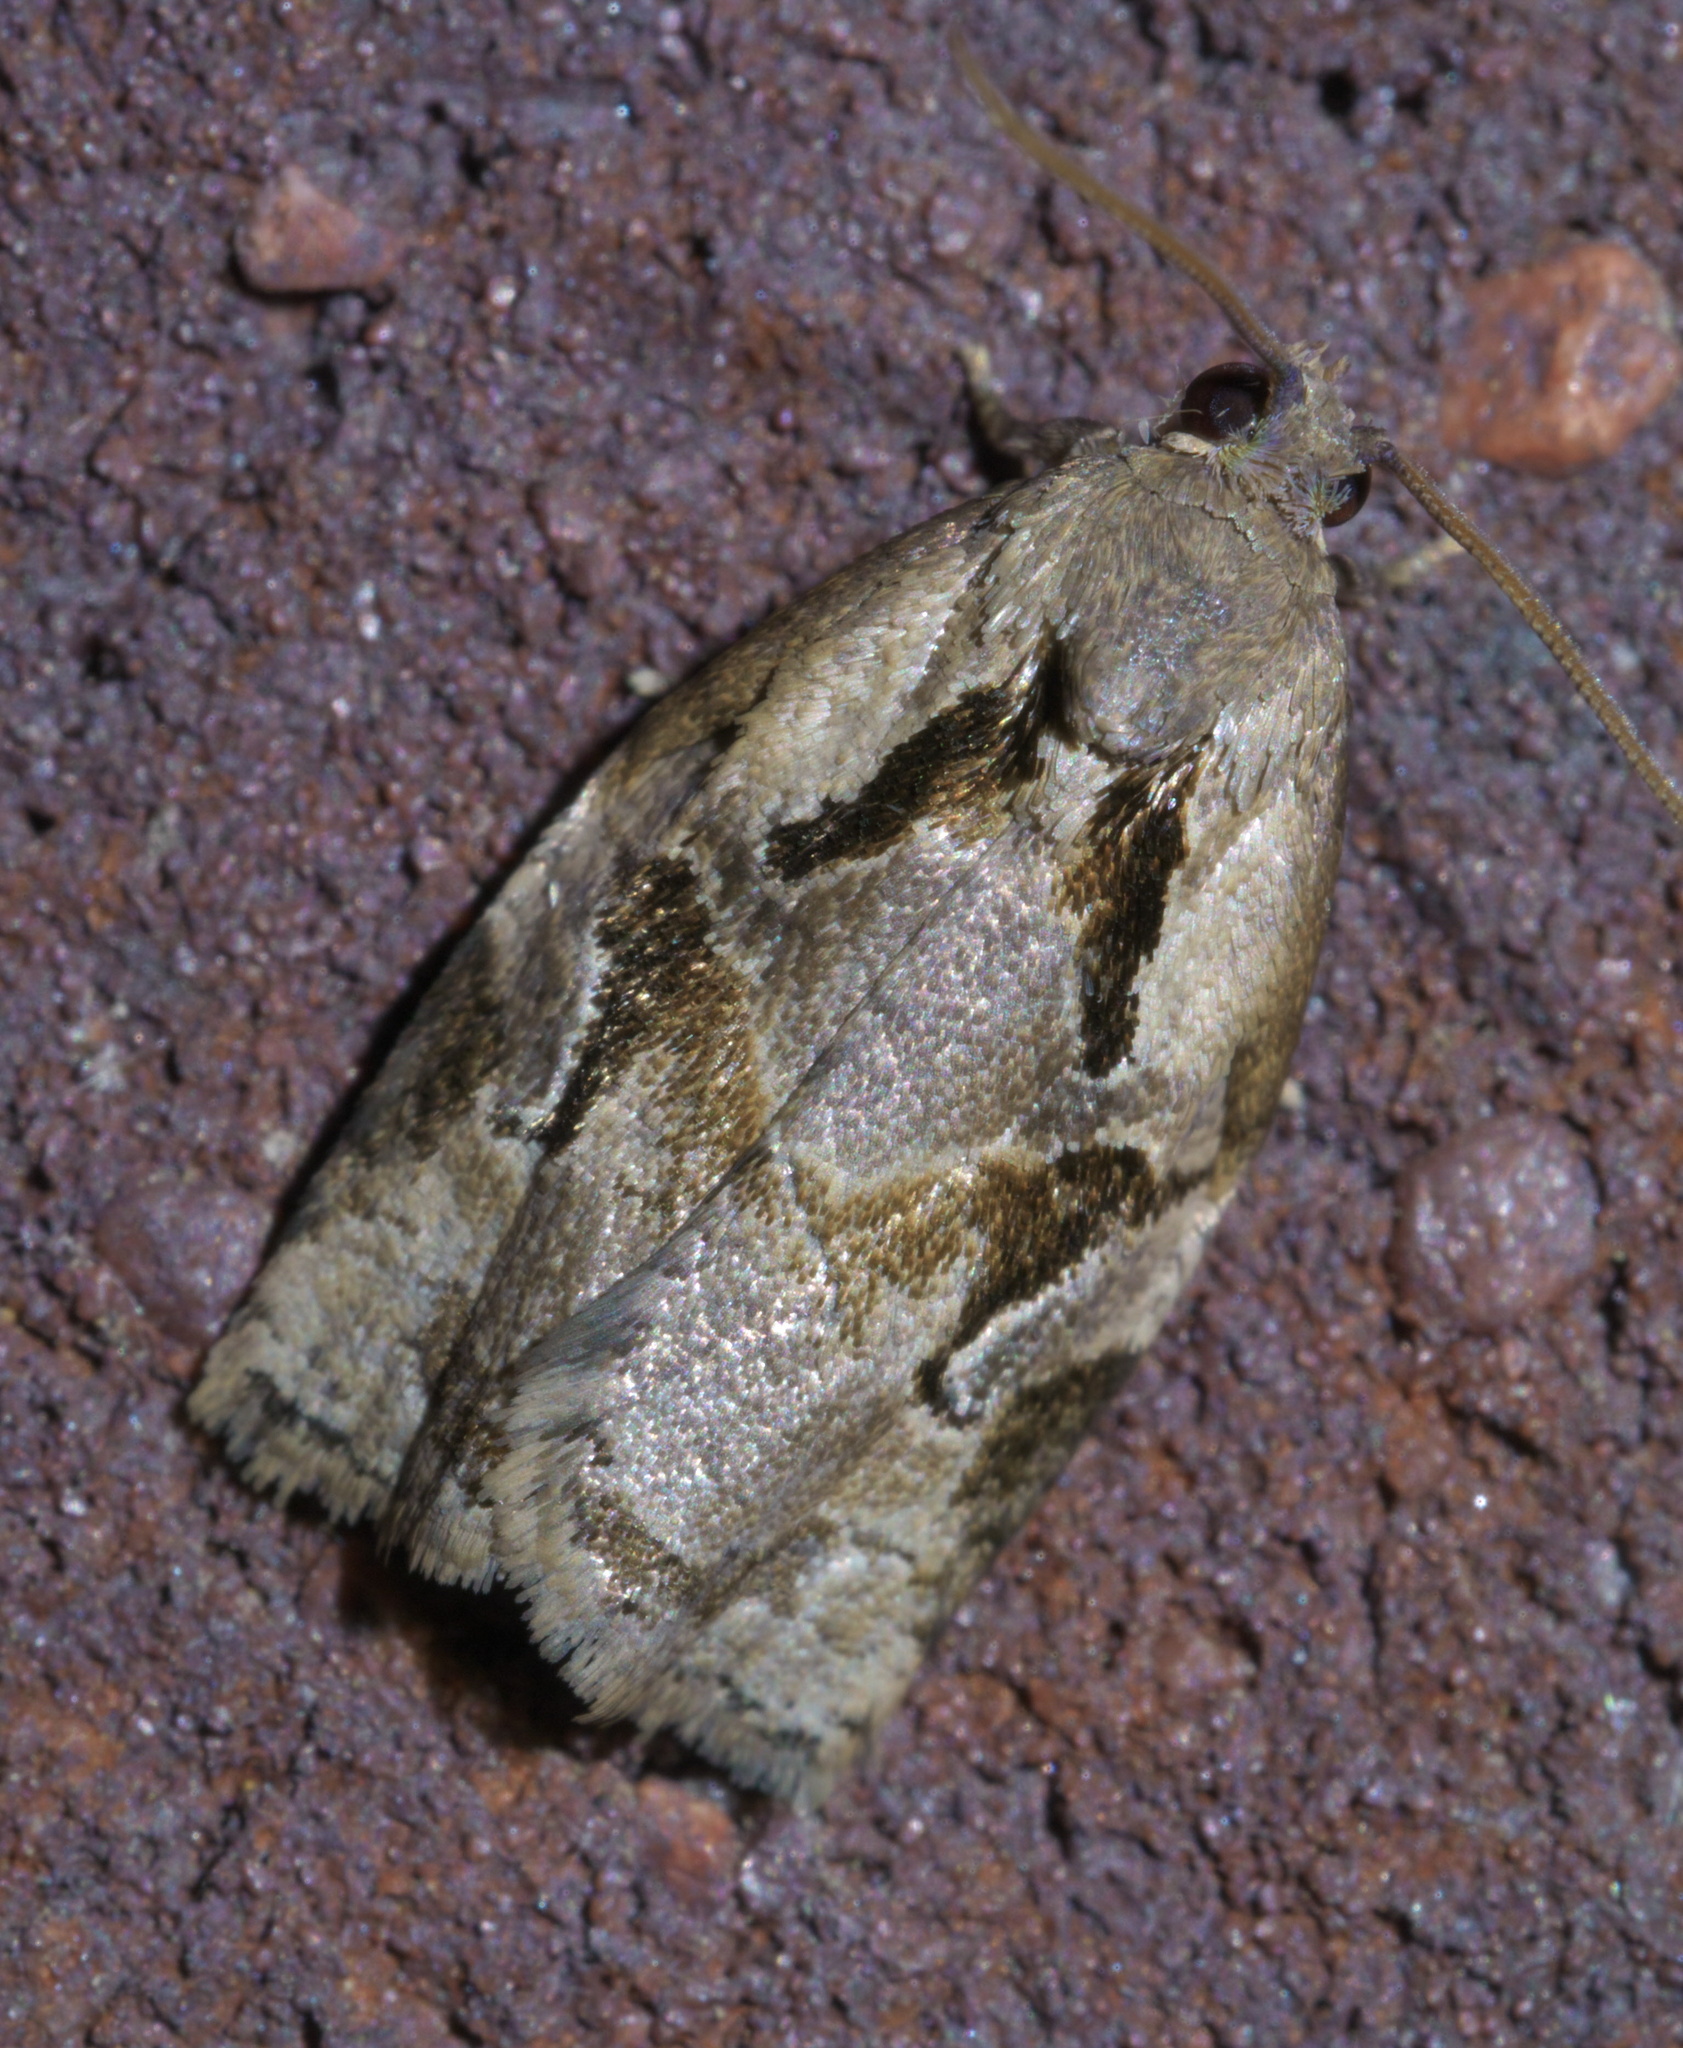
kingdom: Animalia
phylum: Arthropoda
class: Insecta
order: Lepidoptera
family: Tortricidae
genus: Archips
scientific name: Archips grisea
